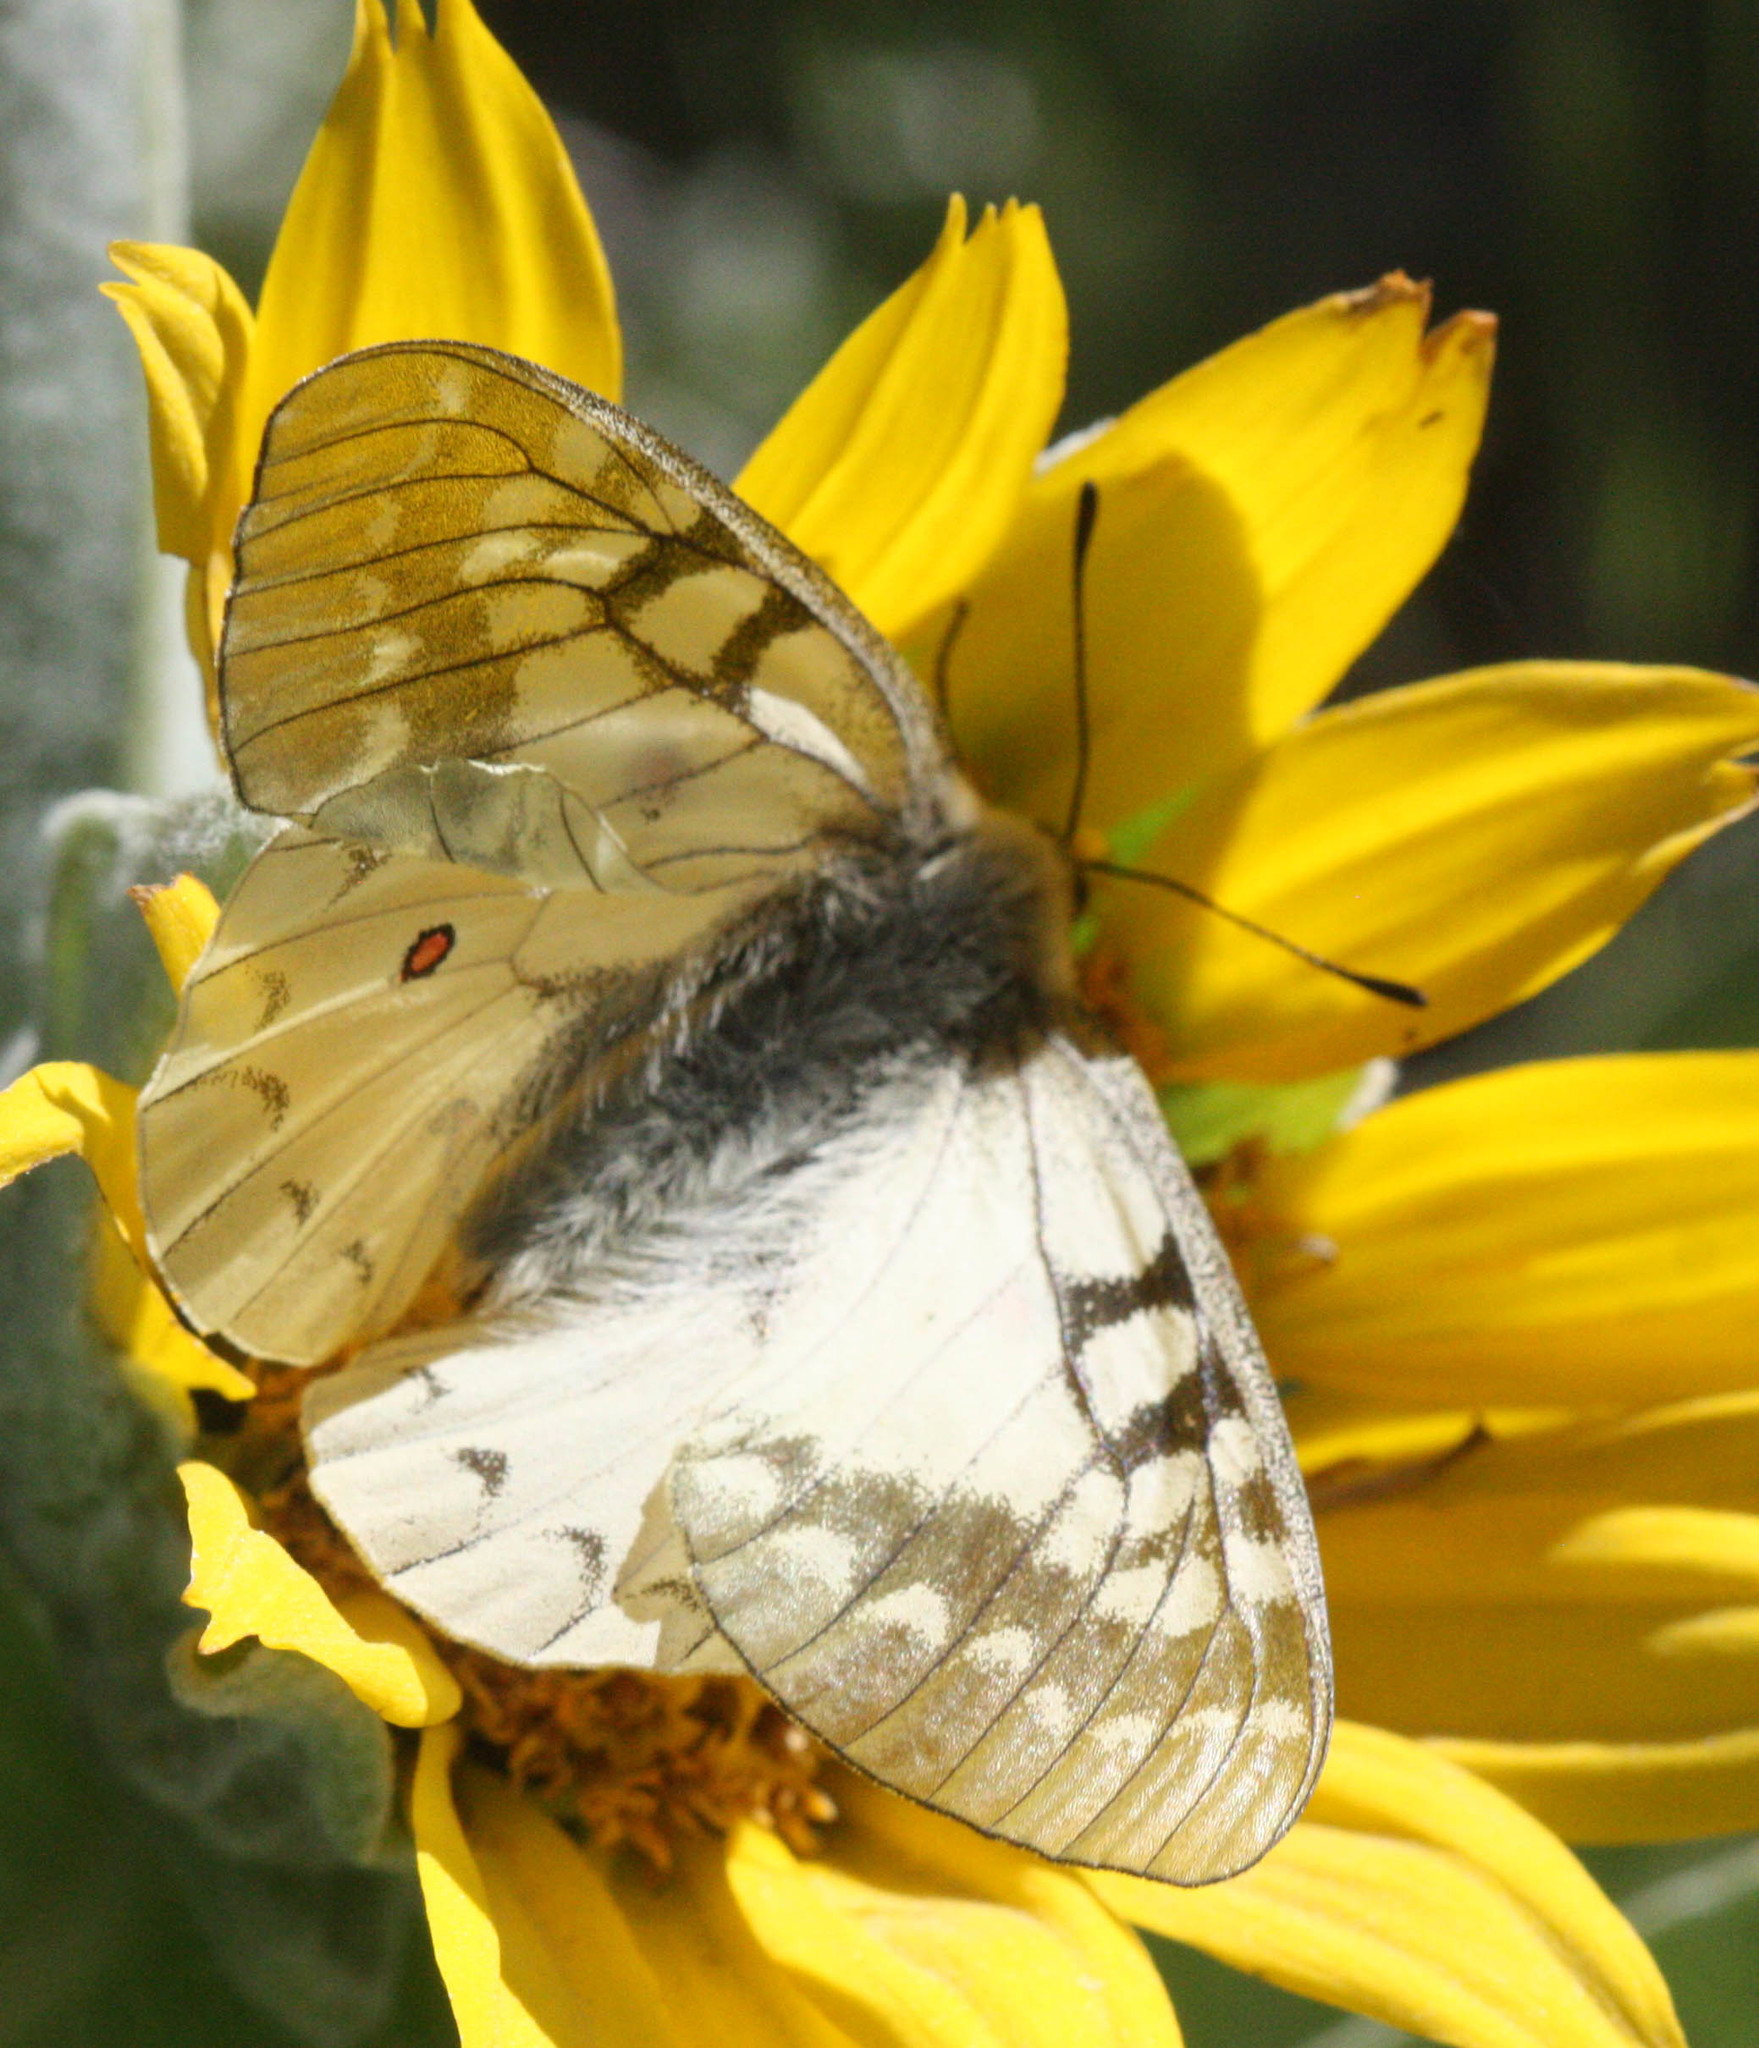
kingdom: Animalia
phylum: Arthropoda
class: Insecta
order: Lepidoptera
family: Papilionidae
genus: Parnassius
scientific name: Parnassius clodius
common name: American apollo
